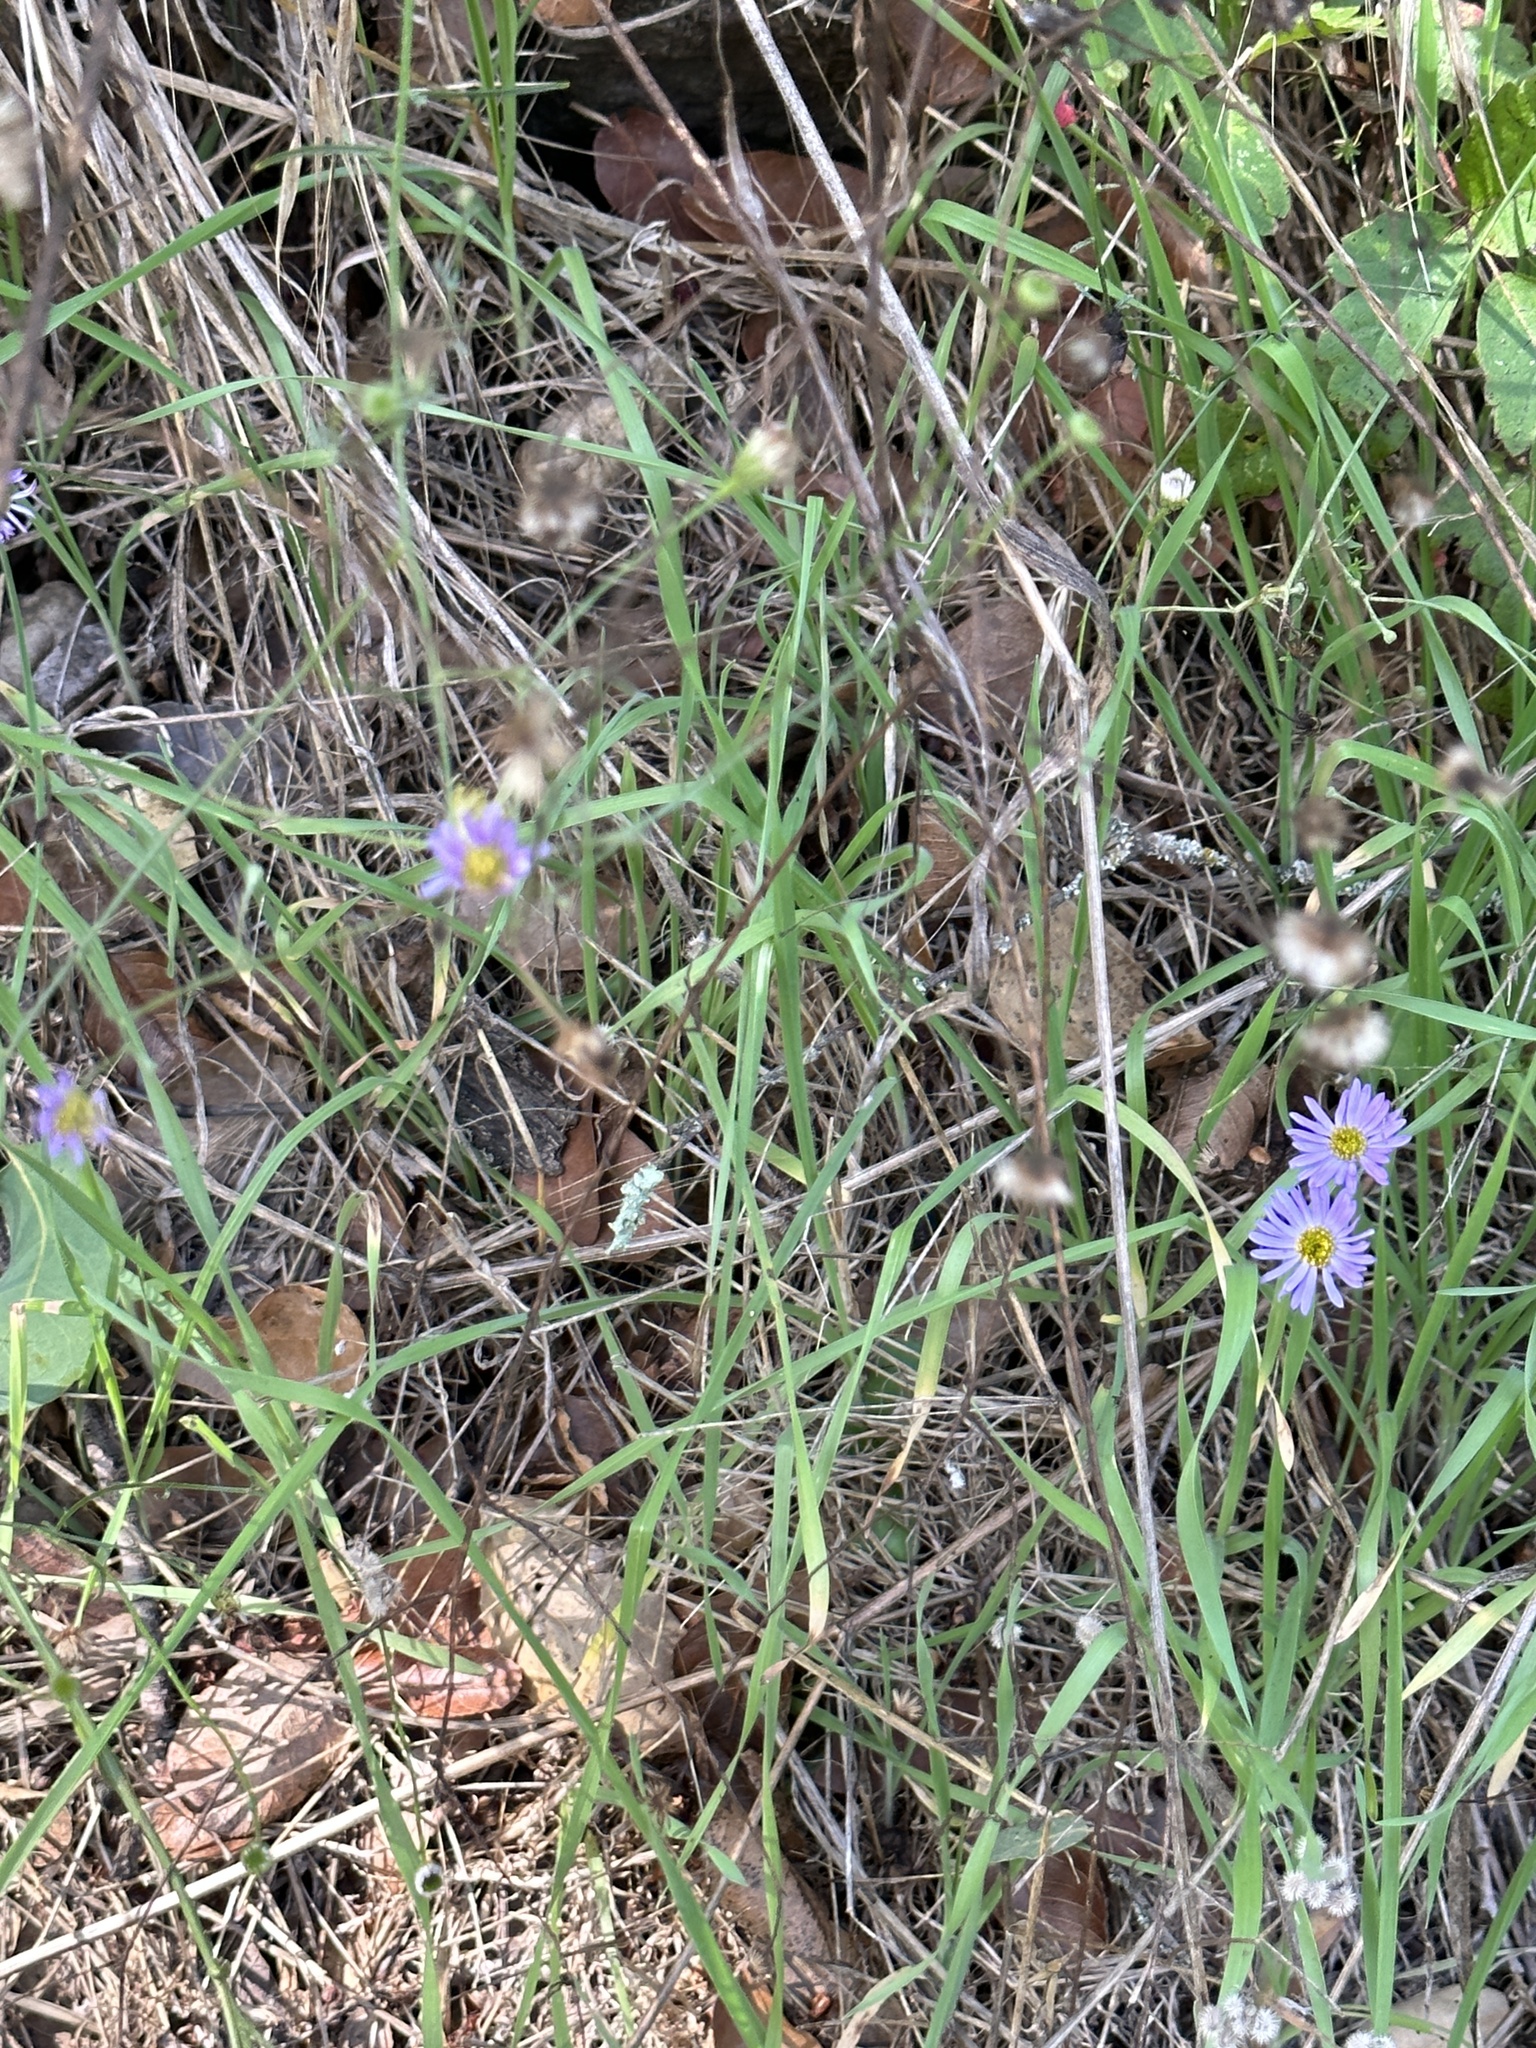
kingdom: Plantae
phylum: Tracheophyta
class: Magnoliopsida
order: Asterales
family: Asteraceae
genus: Erigeron
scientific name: Erigeron foliosus
